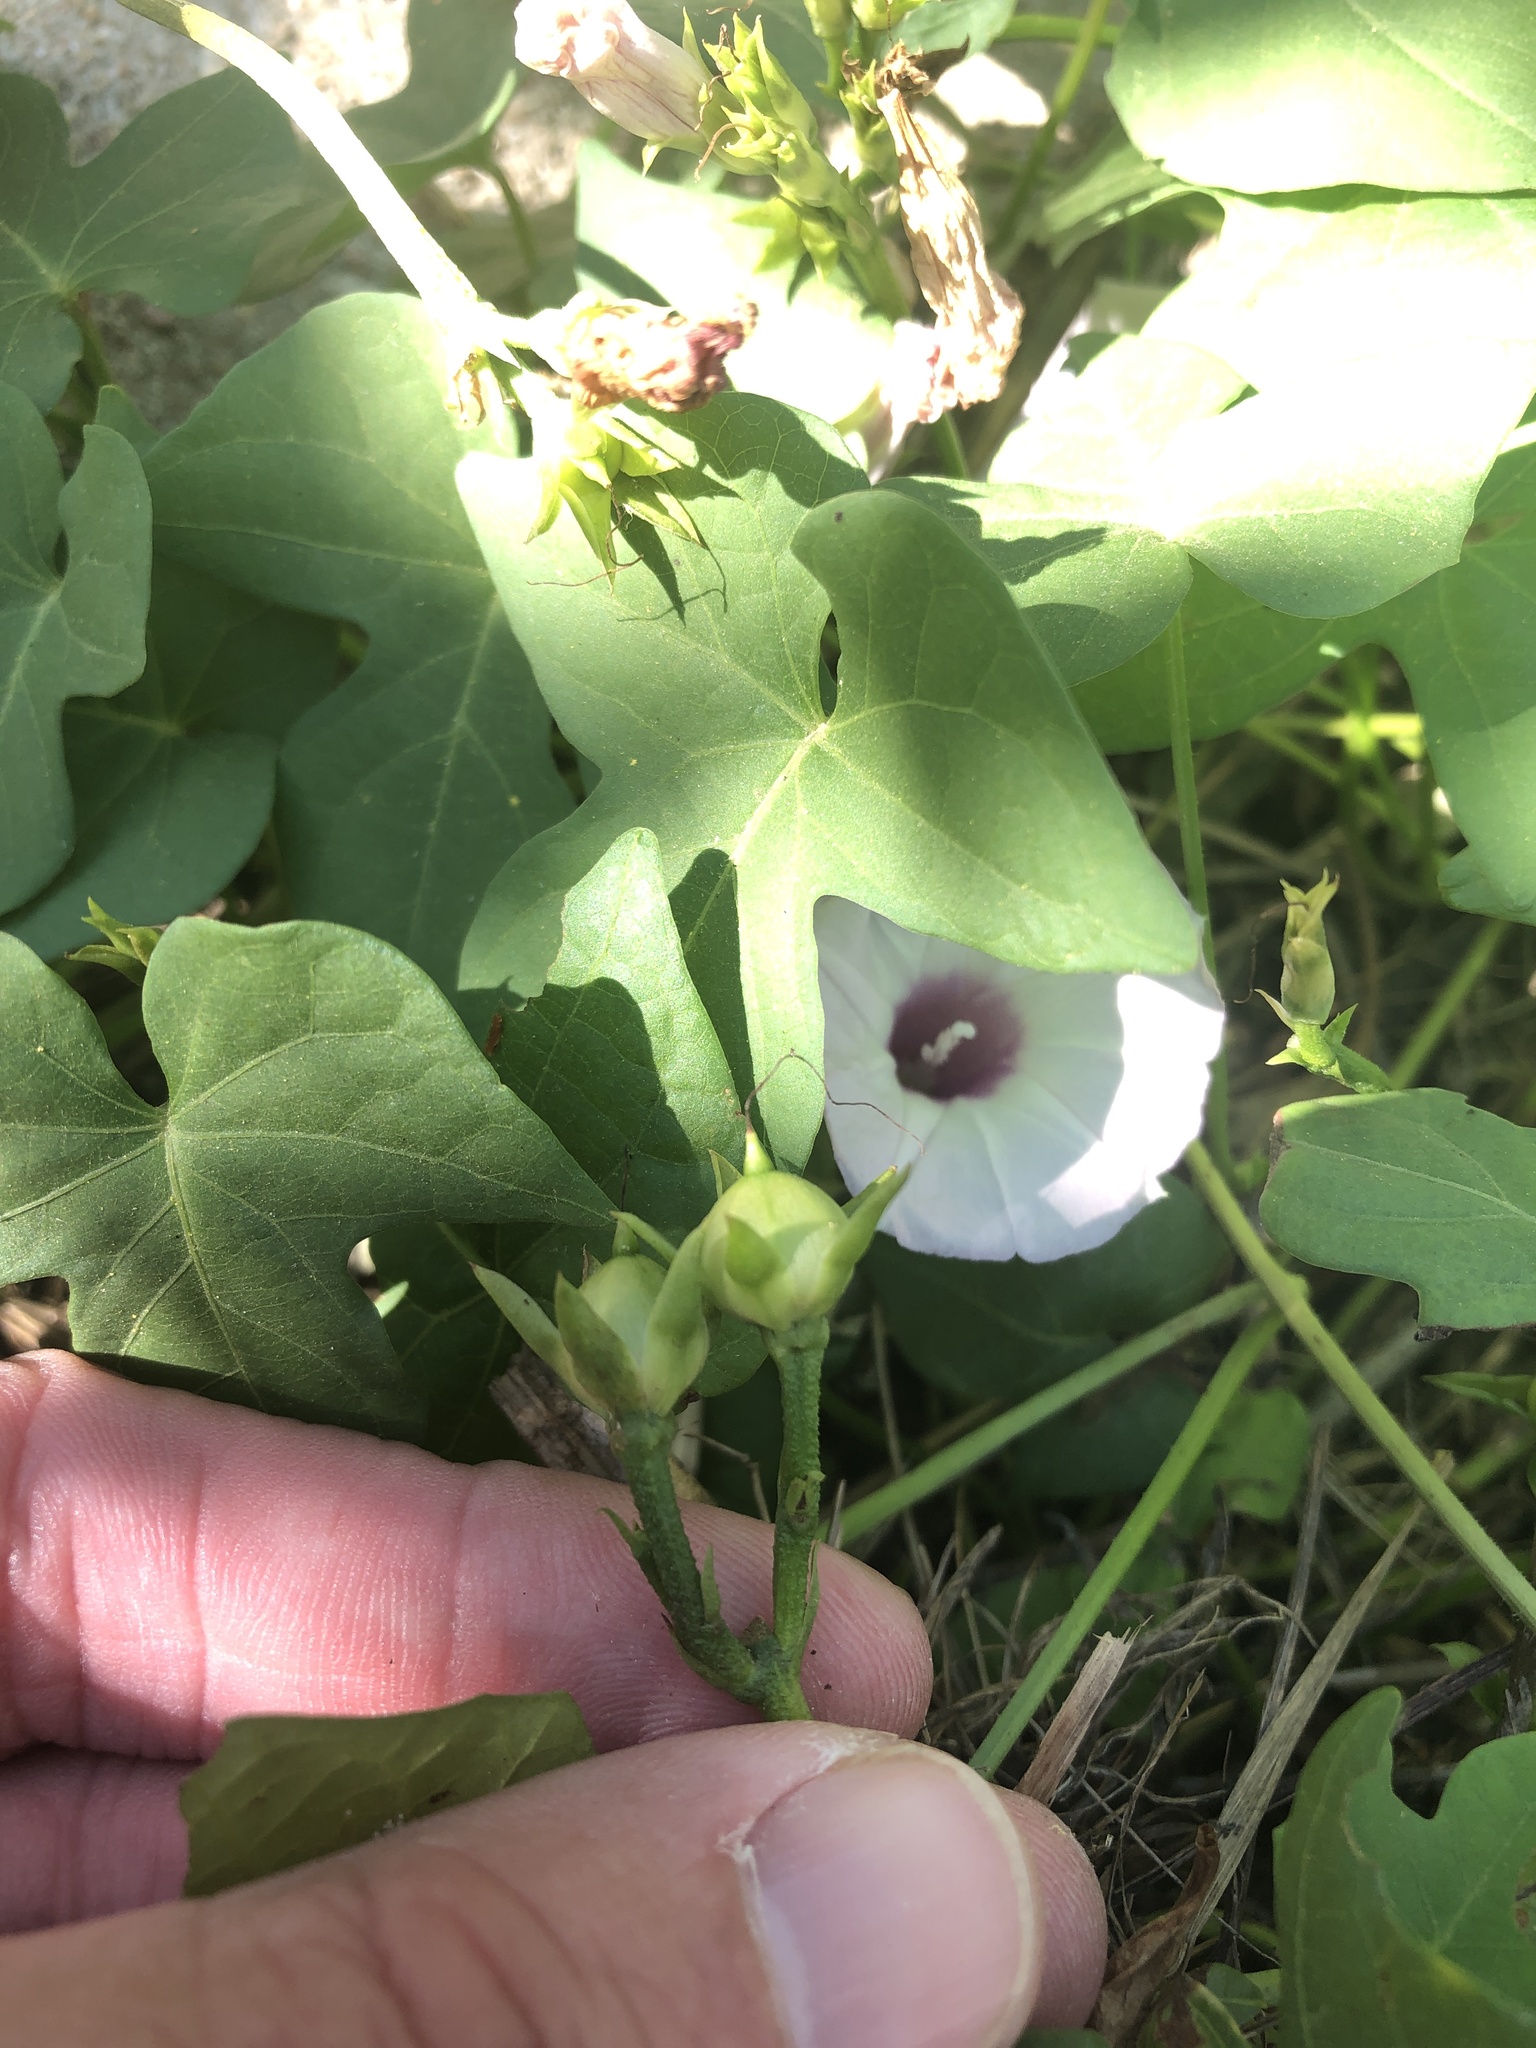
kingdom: Plantae
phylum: Tracheophyta
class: Magnoliopsida
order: Solanales
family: Convolvulaceae
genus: Ipomoea
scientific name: Ipomoea cordatotriloba
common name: Cotton morning glory
